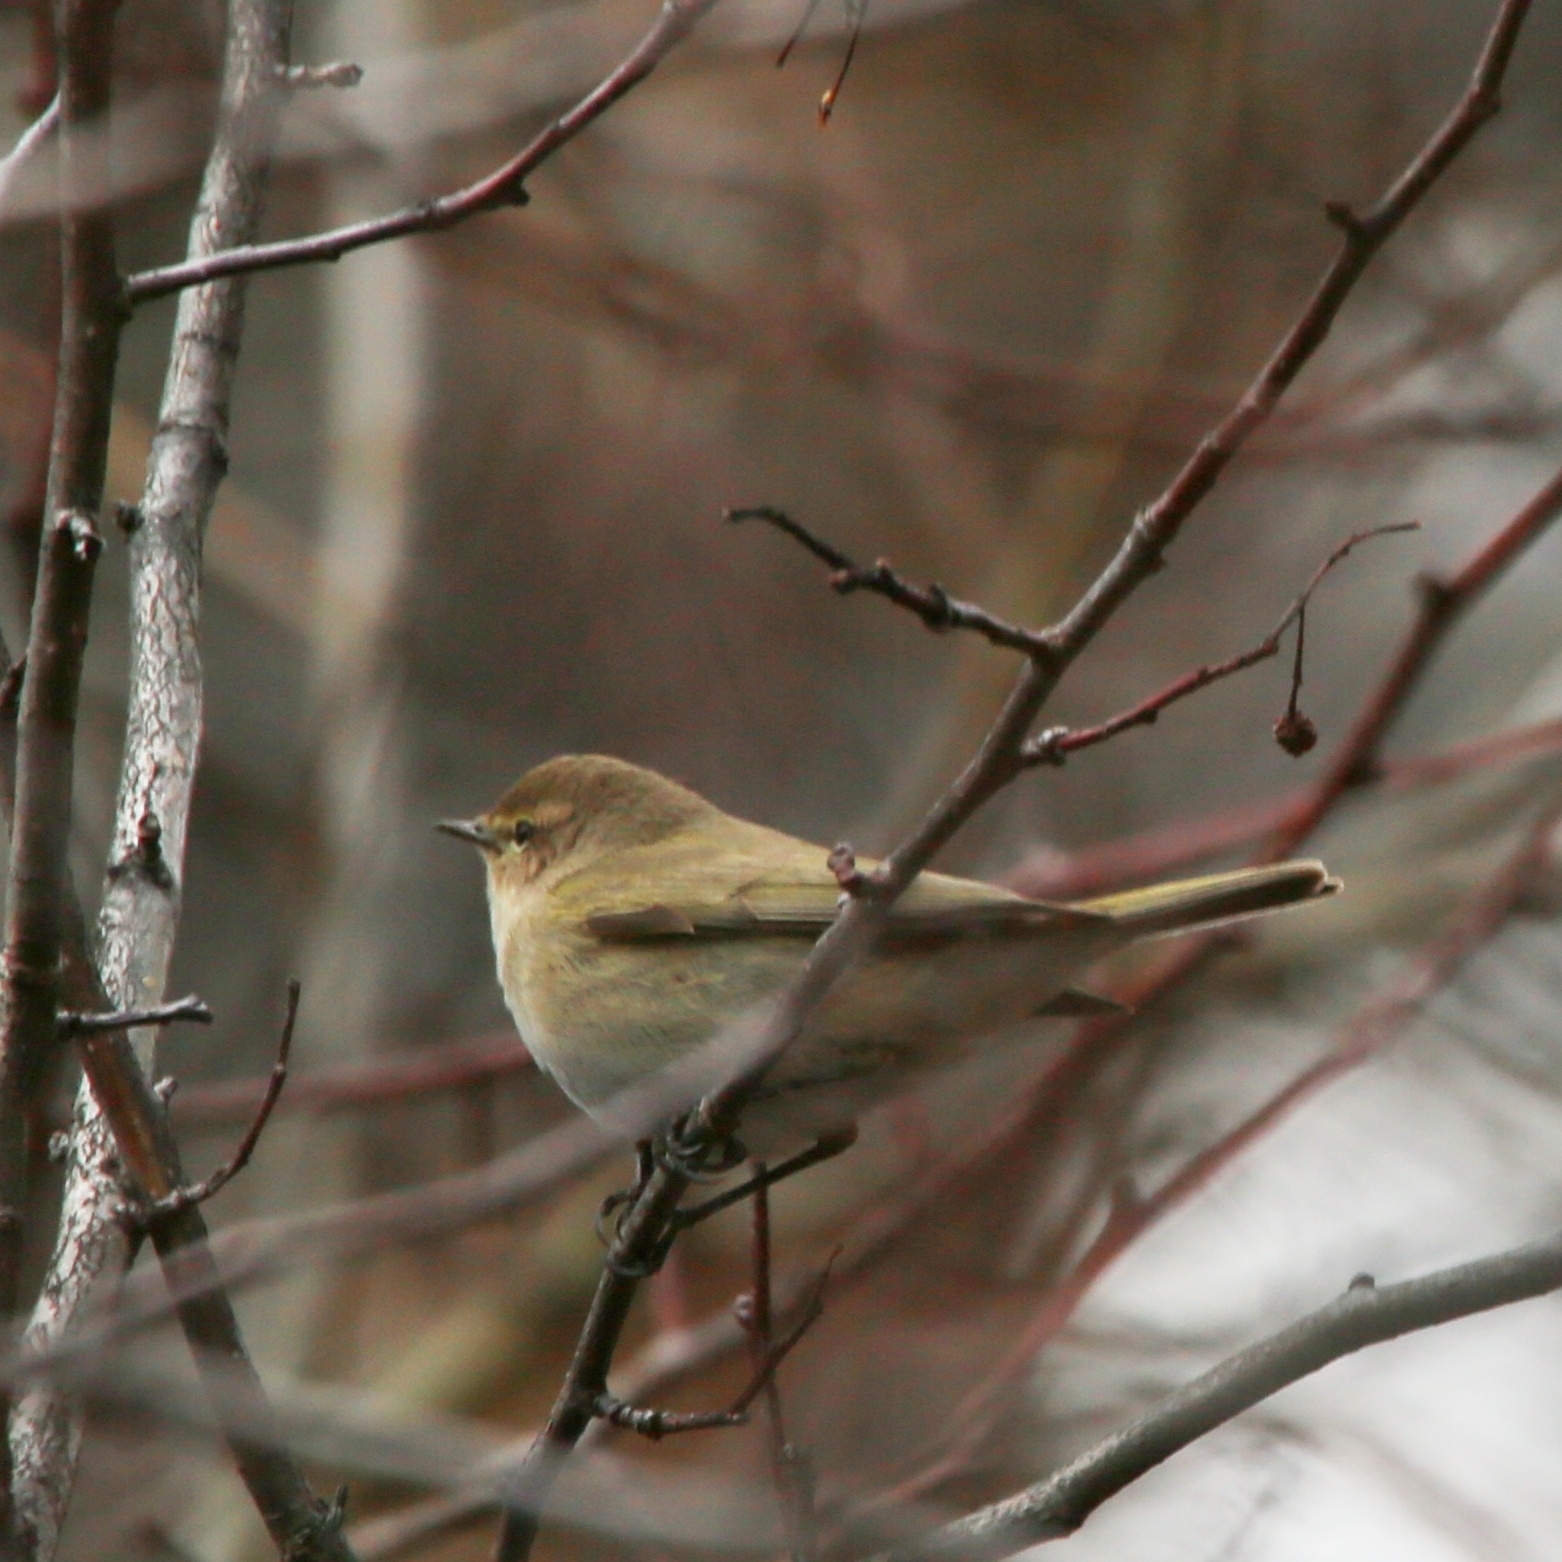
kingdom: Animalia
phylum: Chordata
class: Aves
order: Passeriformes
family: Phylloscopidae
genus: Phylloscopus
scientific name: Phylloscopus collybita
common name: Common chiffchaff
